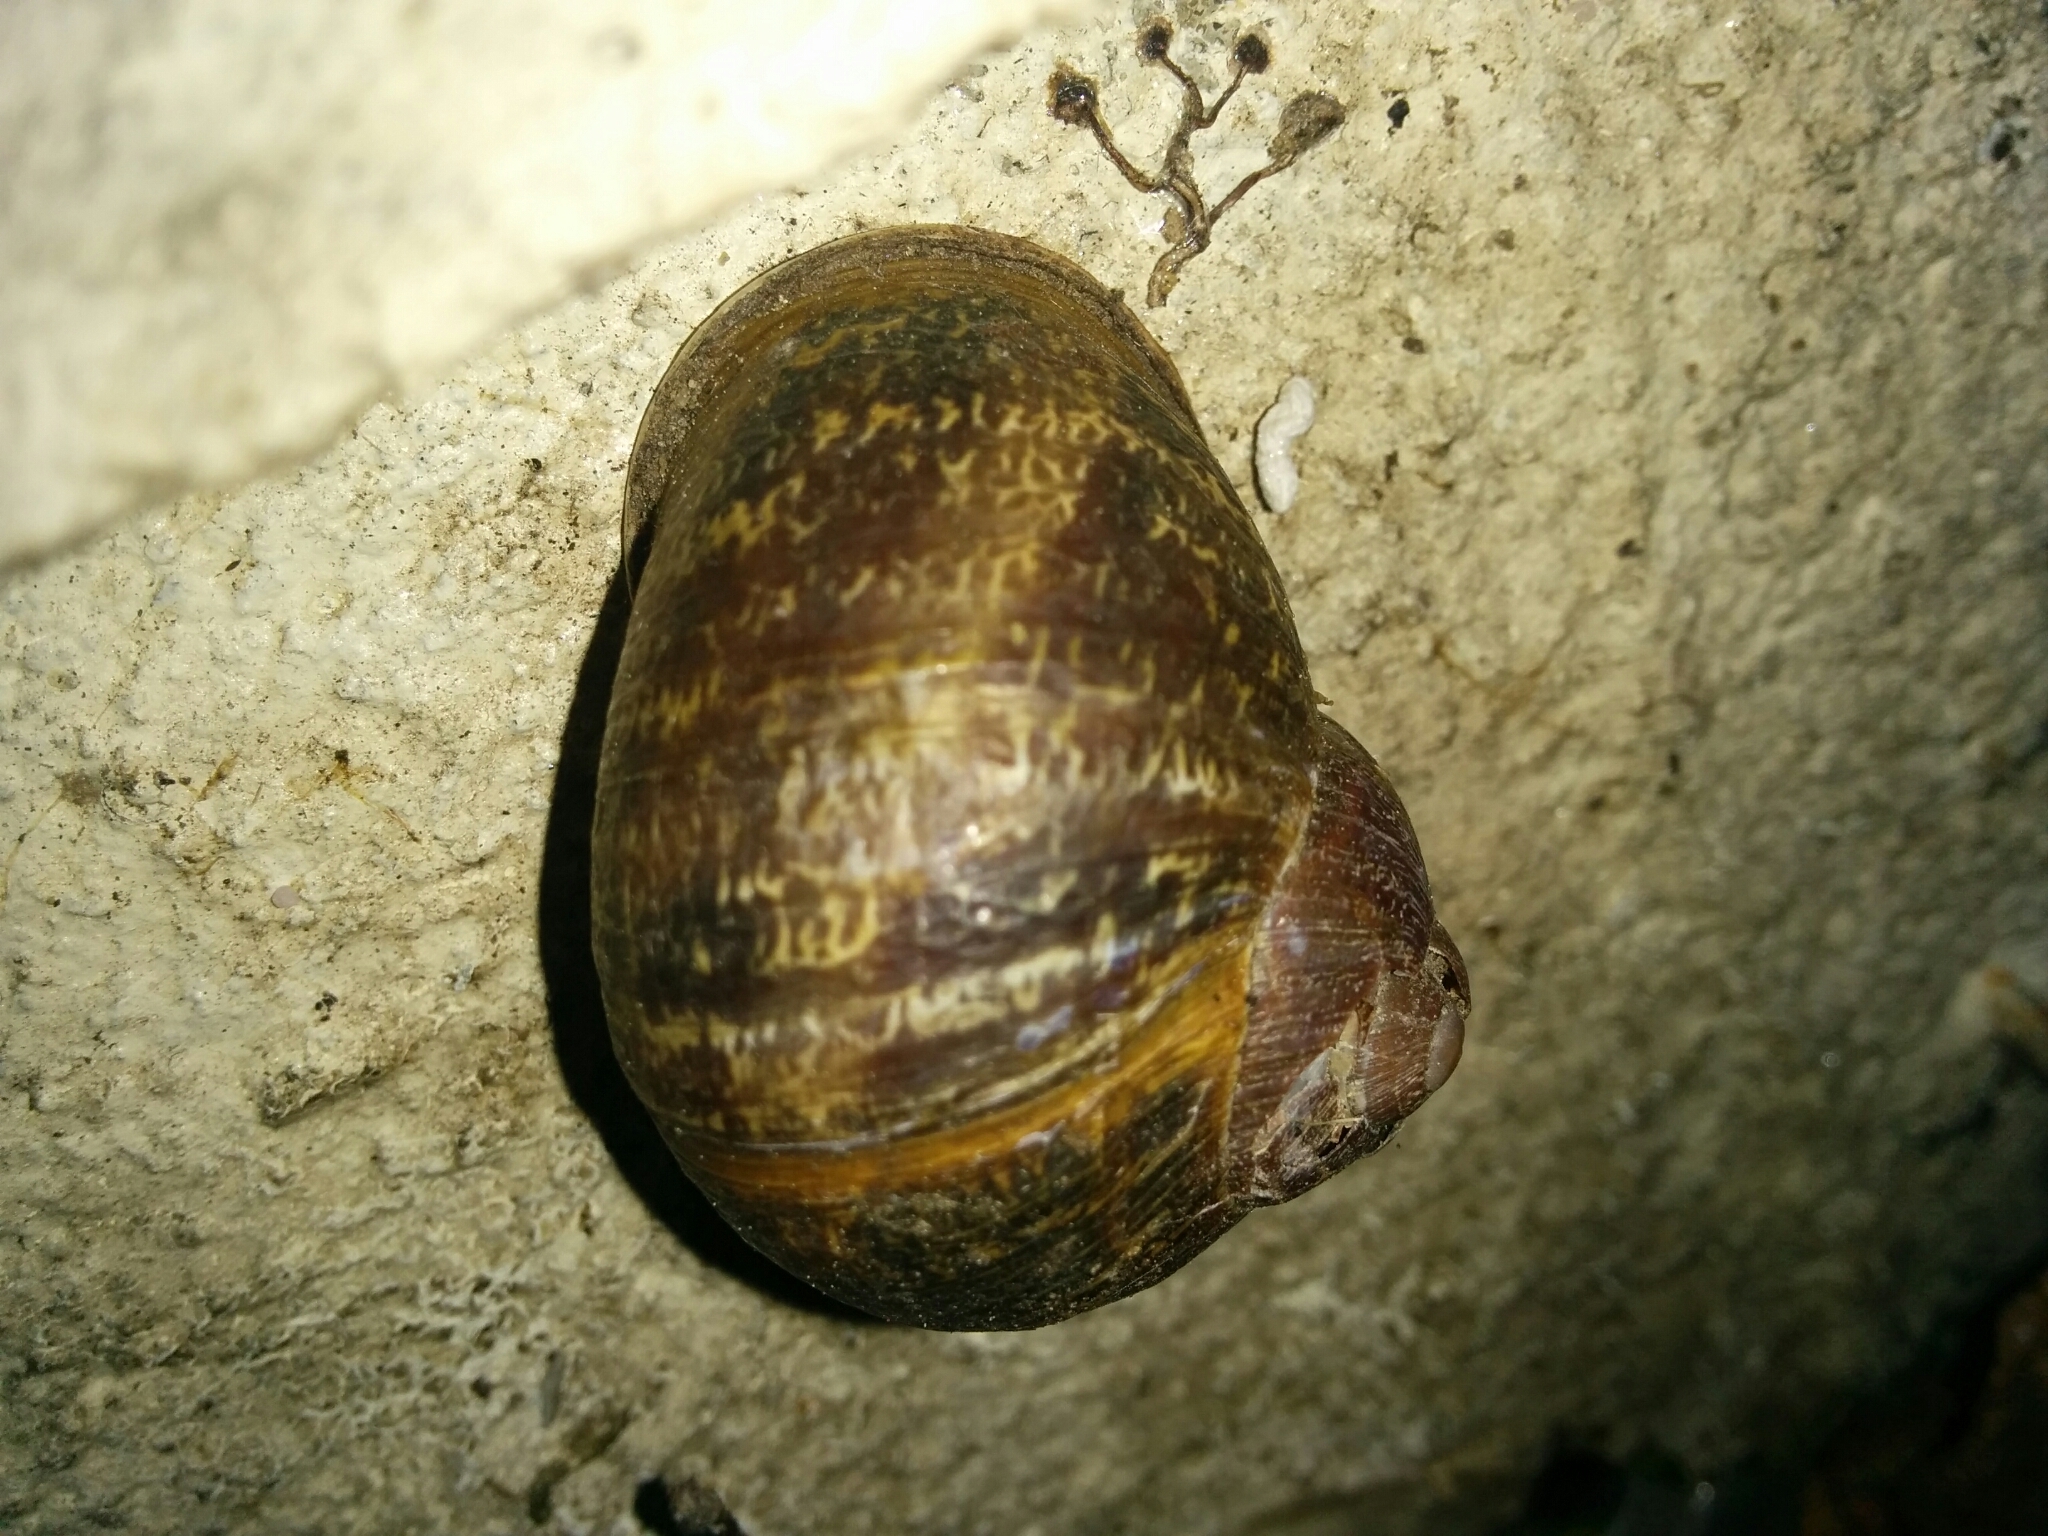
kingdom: Animalia
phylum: Mollusca
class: Gastropoda
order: Stylommatophora
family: Helicidae
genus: Cornu
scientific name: Cornu aspersum
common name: Brown garden snail
